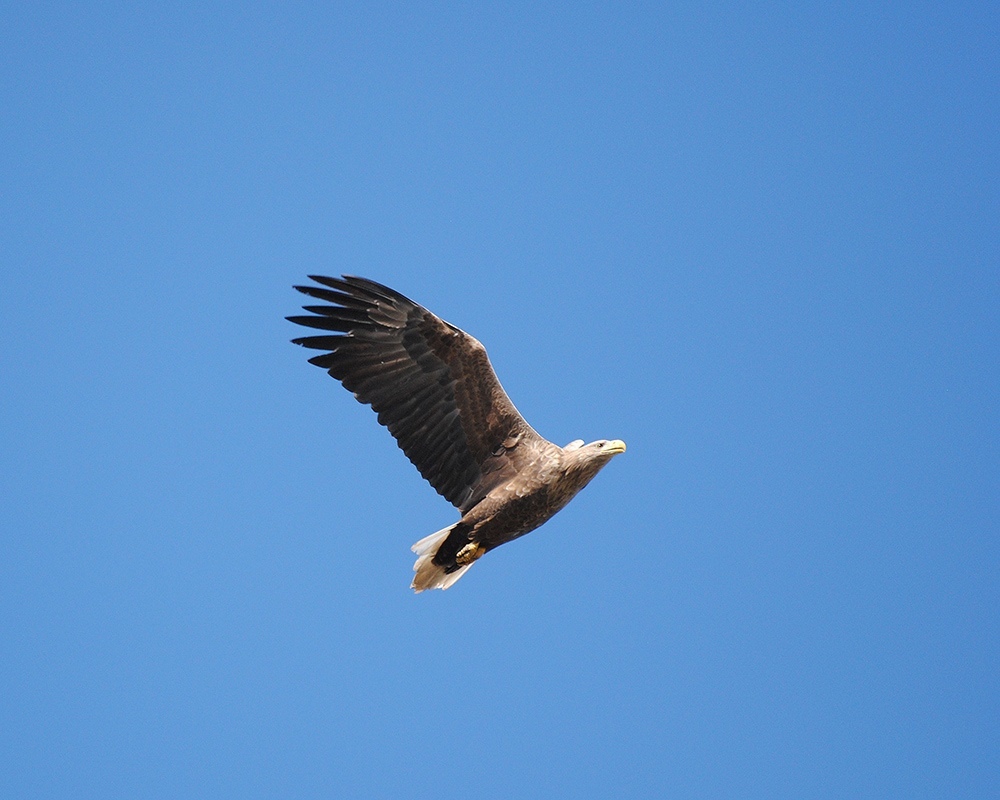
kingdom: Animalia
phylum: Chordata
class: Aves
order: Accipitriformes
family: Accipitridae
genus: Haliaeetus
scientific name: Haliaeetus albicilla
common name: White-tailed eagle
